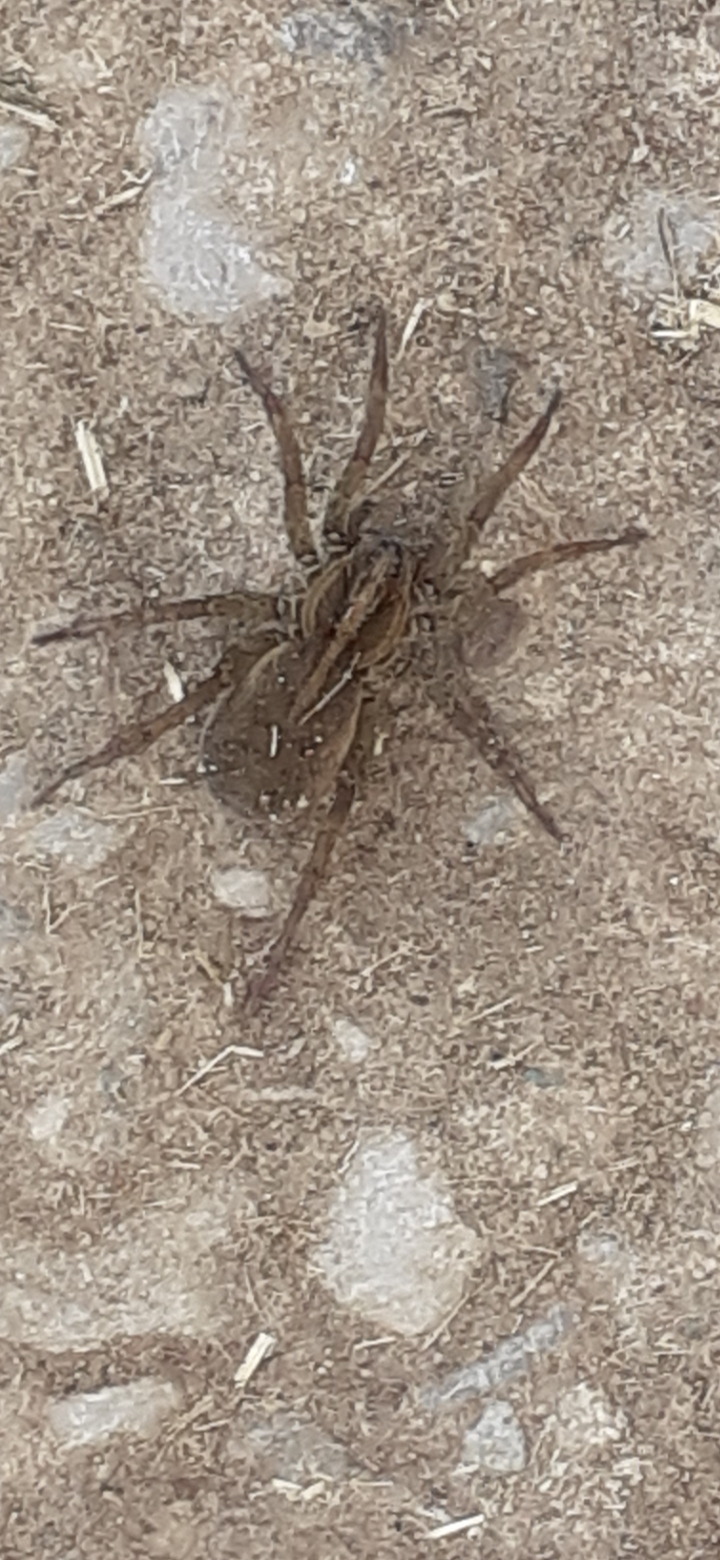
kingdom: Animalia
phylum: Arthropoda
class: Arachnida
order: Araneae
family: Lycosidae
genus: Trochosa
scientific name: Trochosa
